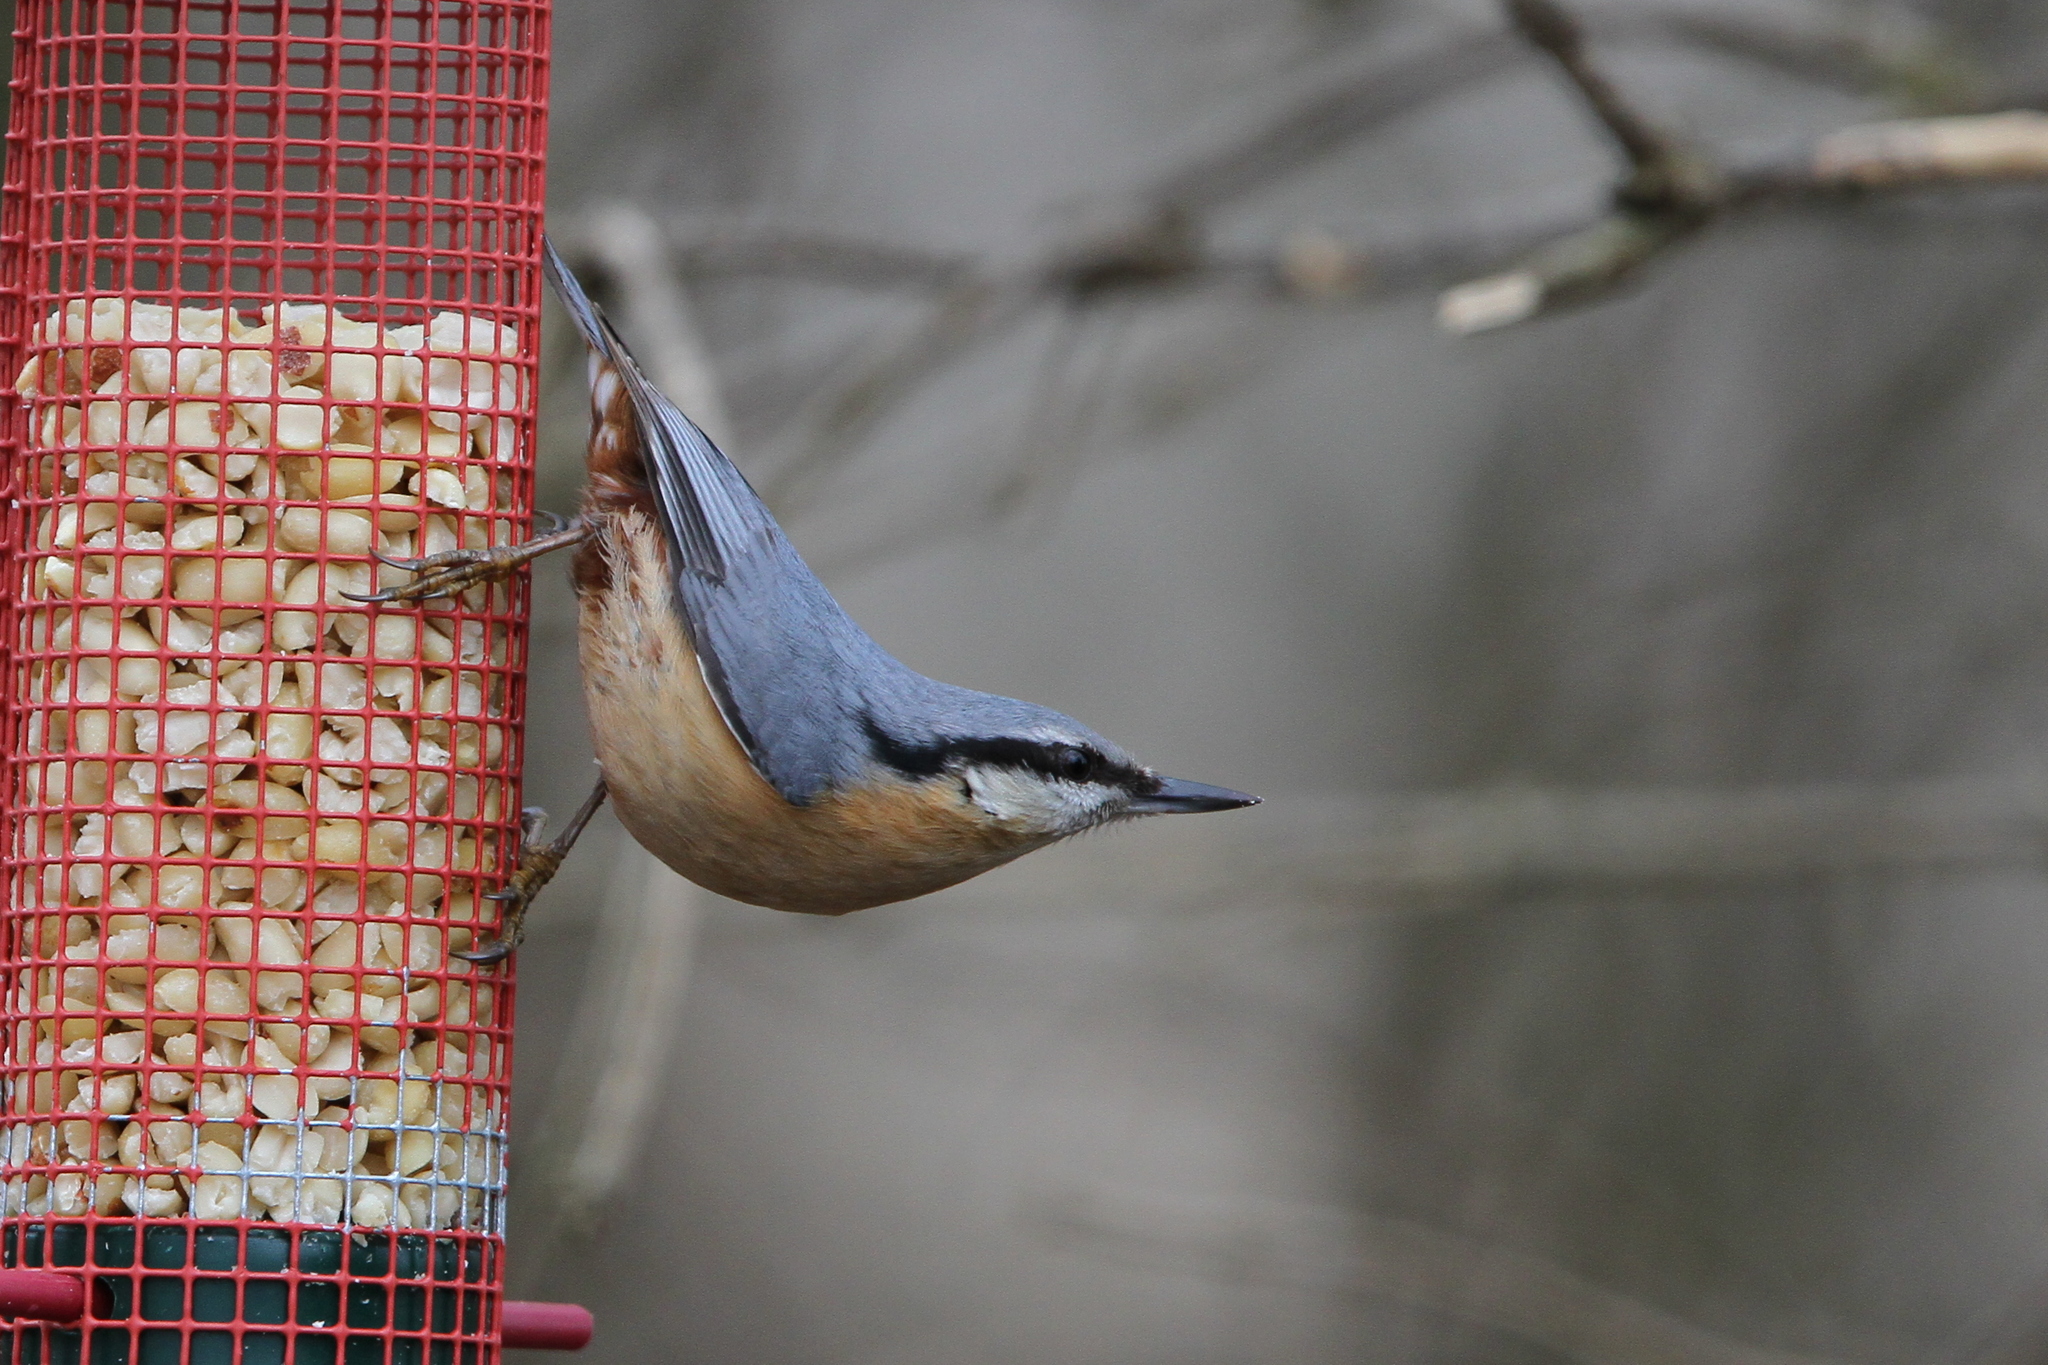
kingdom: Animalia
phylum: Chordata
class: Aves
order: Passeriformes
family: Sittidae
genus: Sitta
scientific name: Sitta europaea
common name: Eurasian nuthatch
